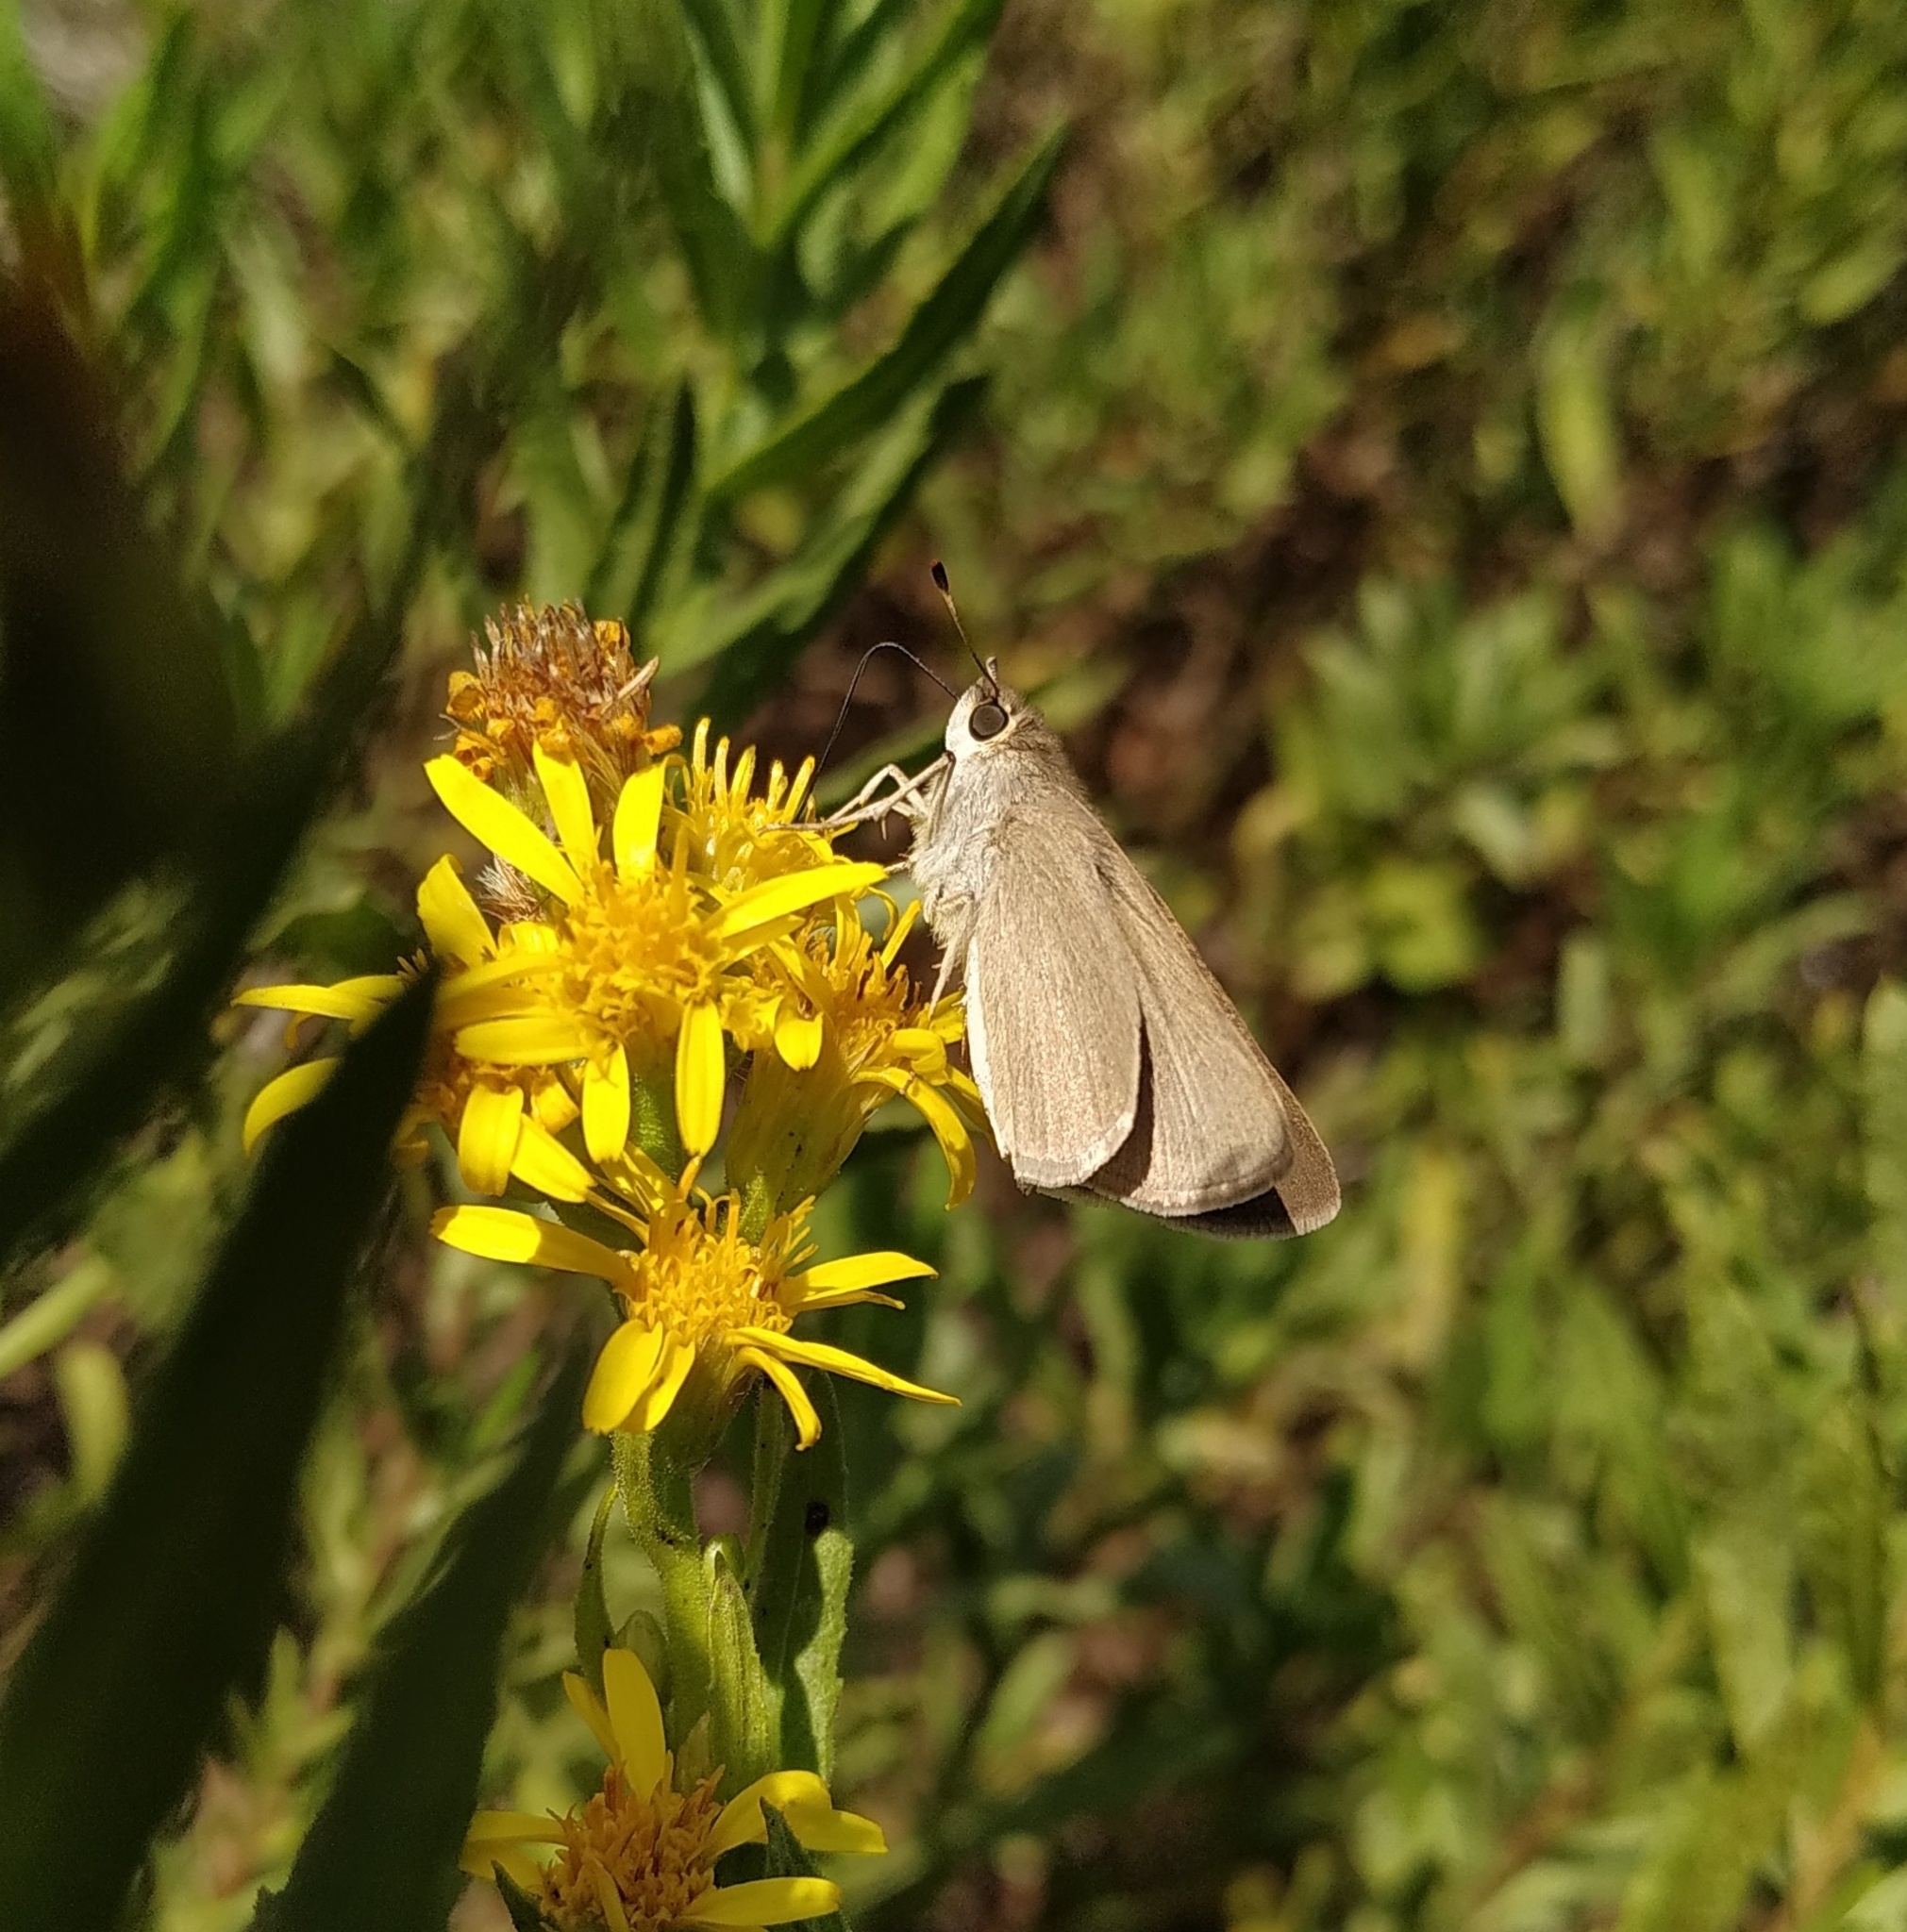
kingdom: Animalia
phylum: Arthropoda
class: Insecta
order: Lepidoptera
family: Hesperiidae
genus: Gegenes
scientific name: Gegenes nostrodamus
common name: Mediterranean skipper
